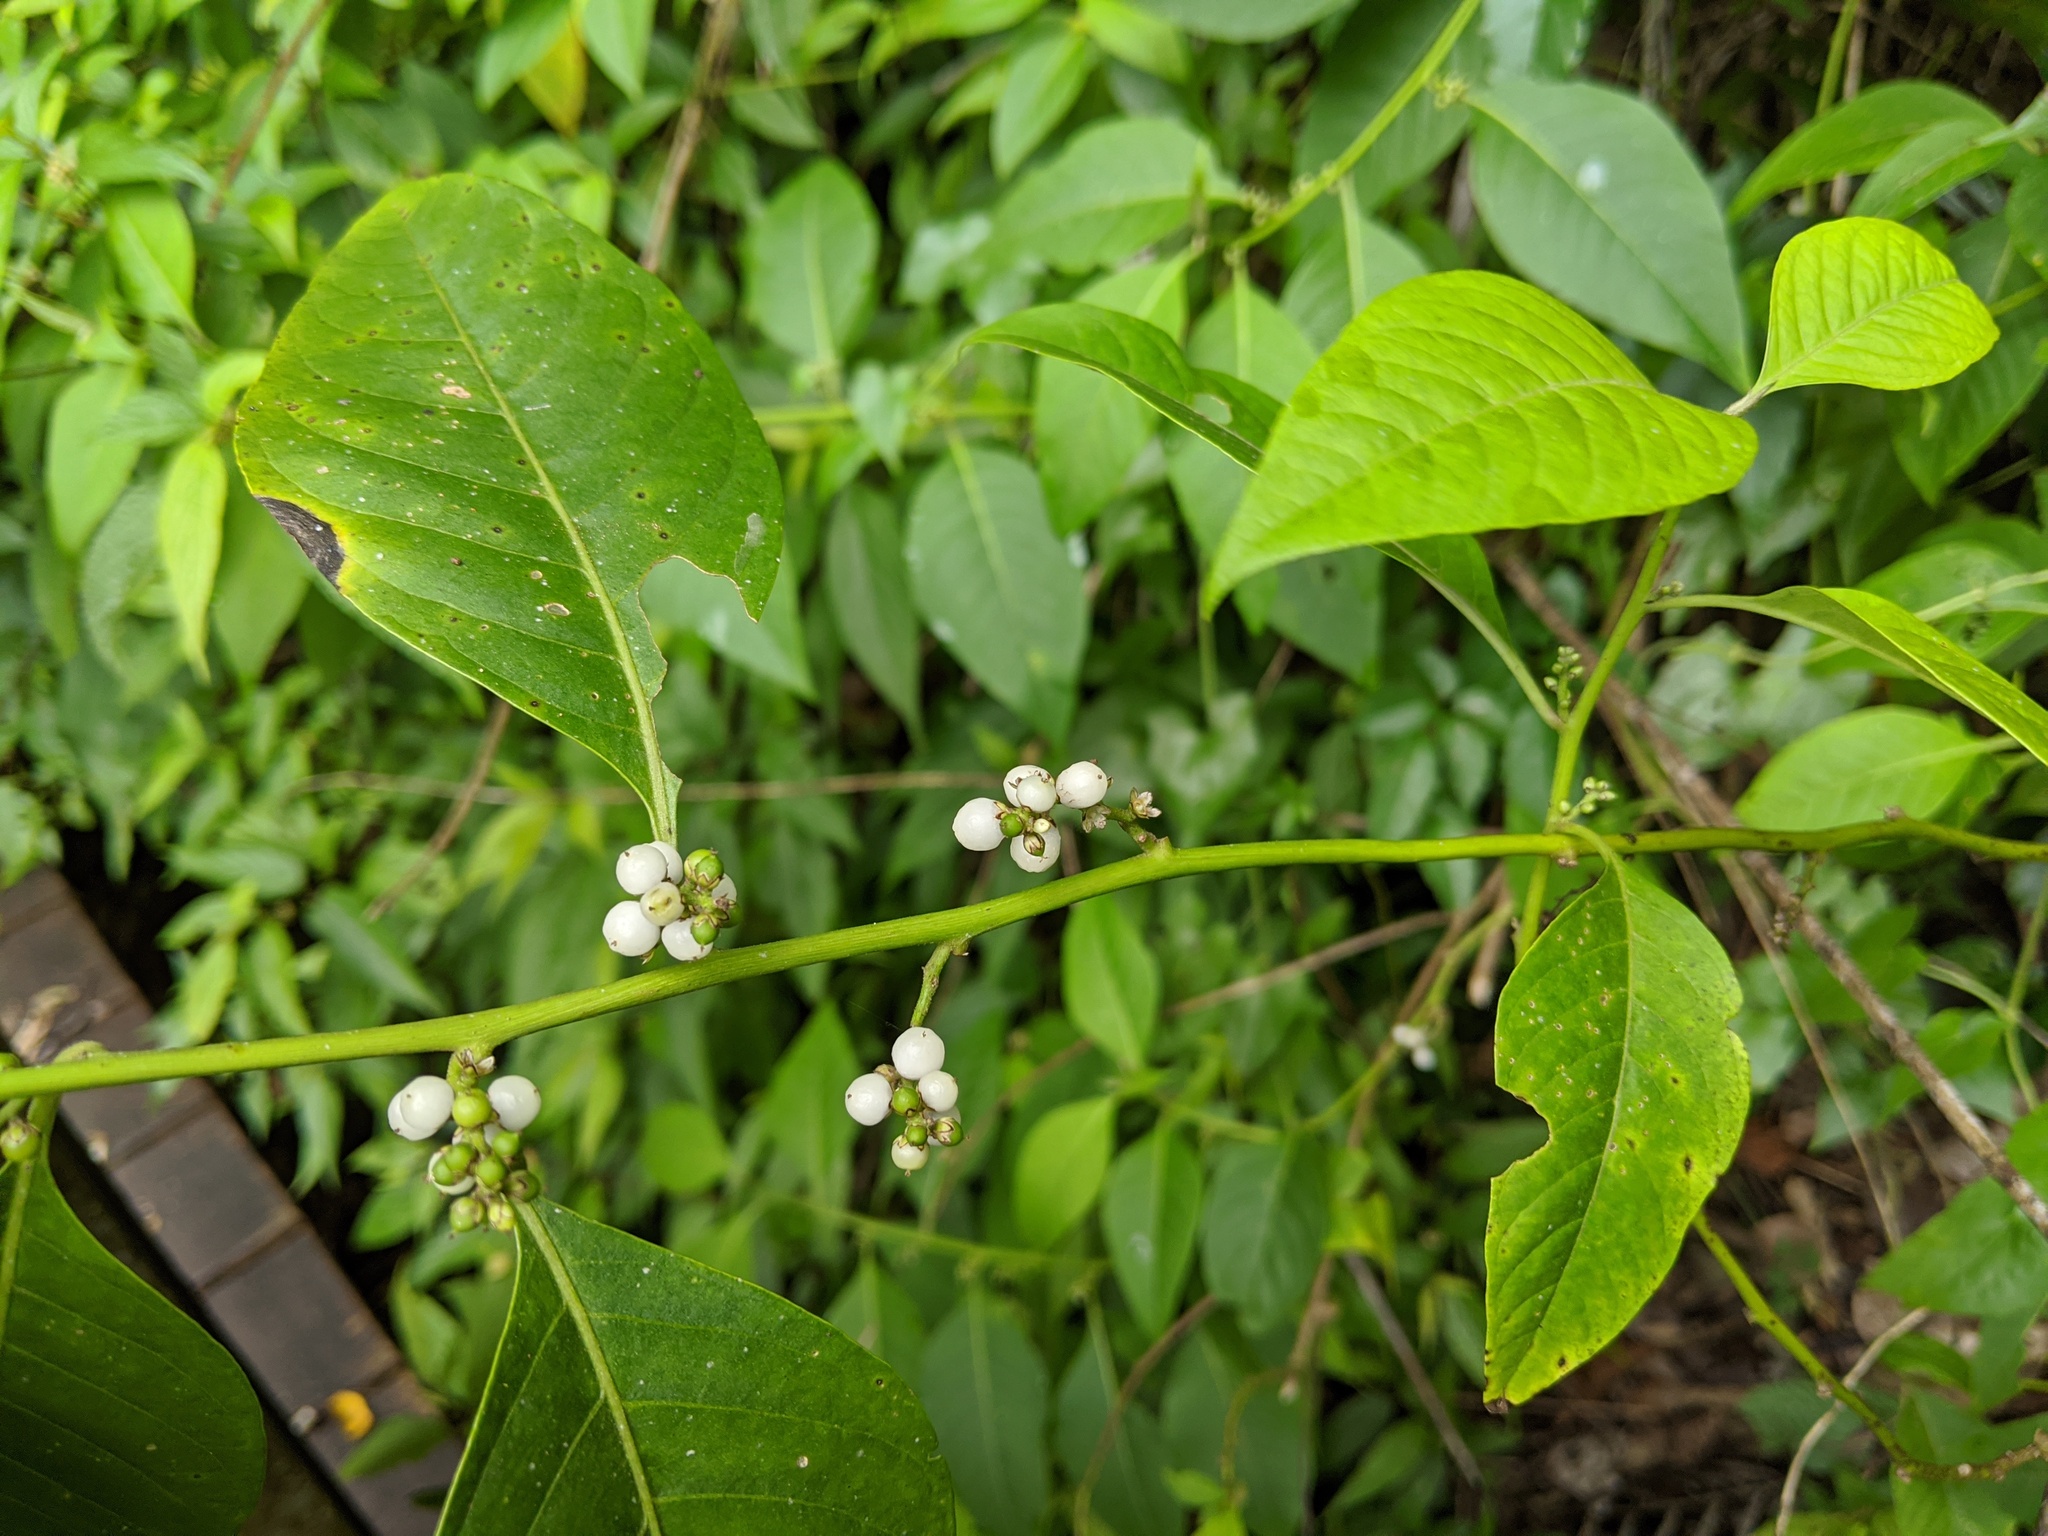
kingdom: Plantae
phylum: Tracheophyta
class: Magnoliopsida
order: Caryophyllales
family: Amaranthaceae
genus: Deeringia
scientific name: Deeringia polysperma
